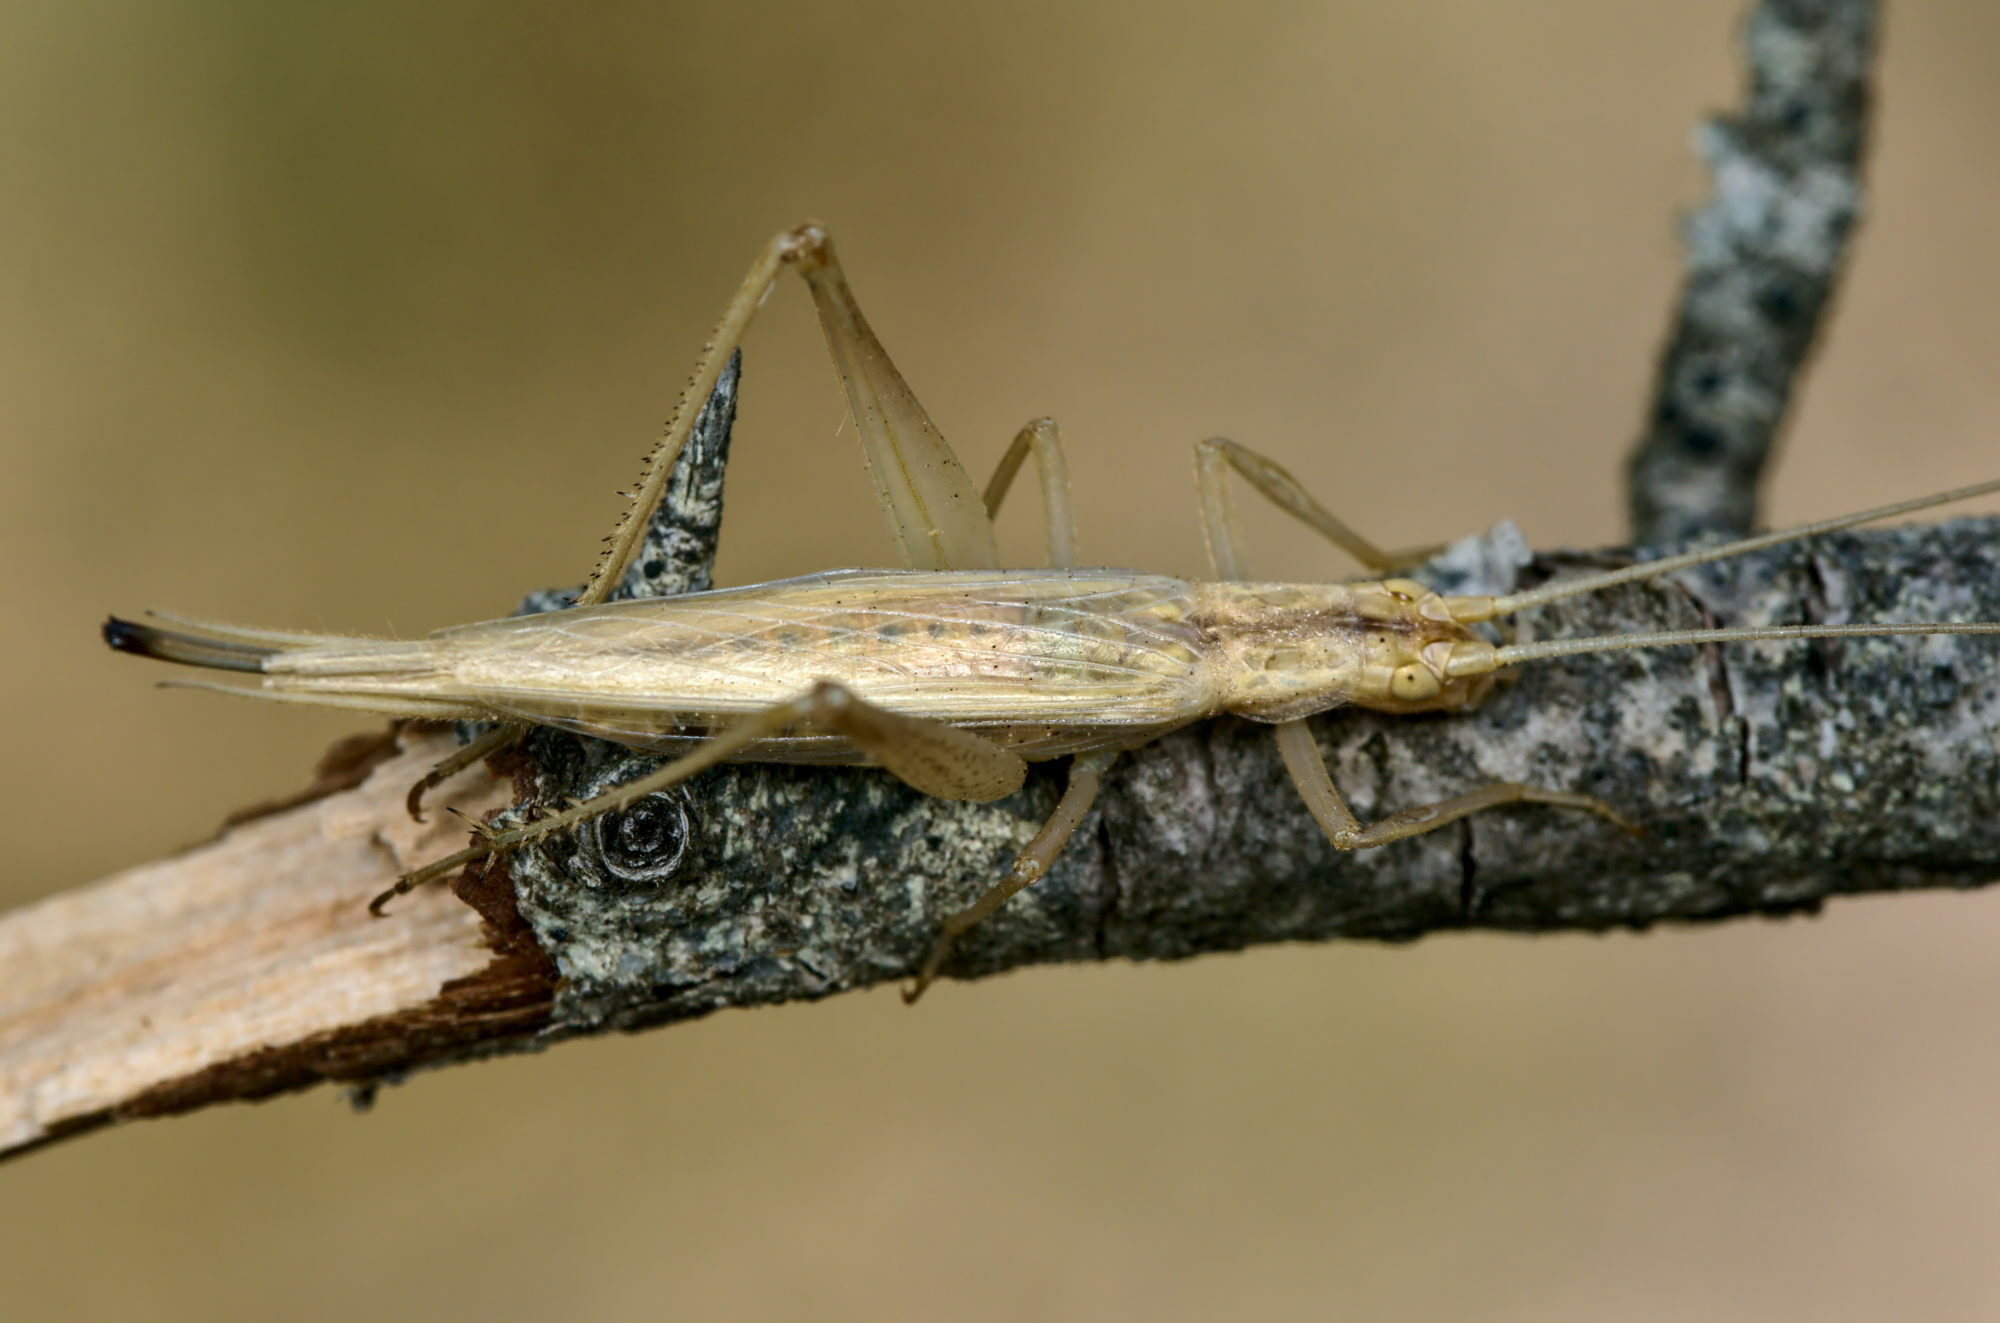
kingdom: Animalia
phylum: Arthropoda
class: Insecta
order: Orthoptera
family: Gryllidae
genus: Oecanthus
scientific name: Oecanthus pellucens
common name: Tree-cricket
